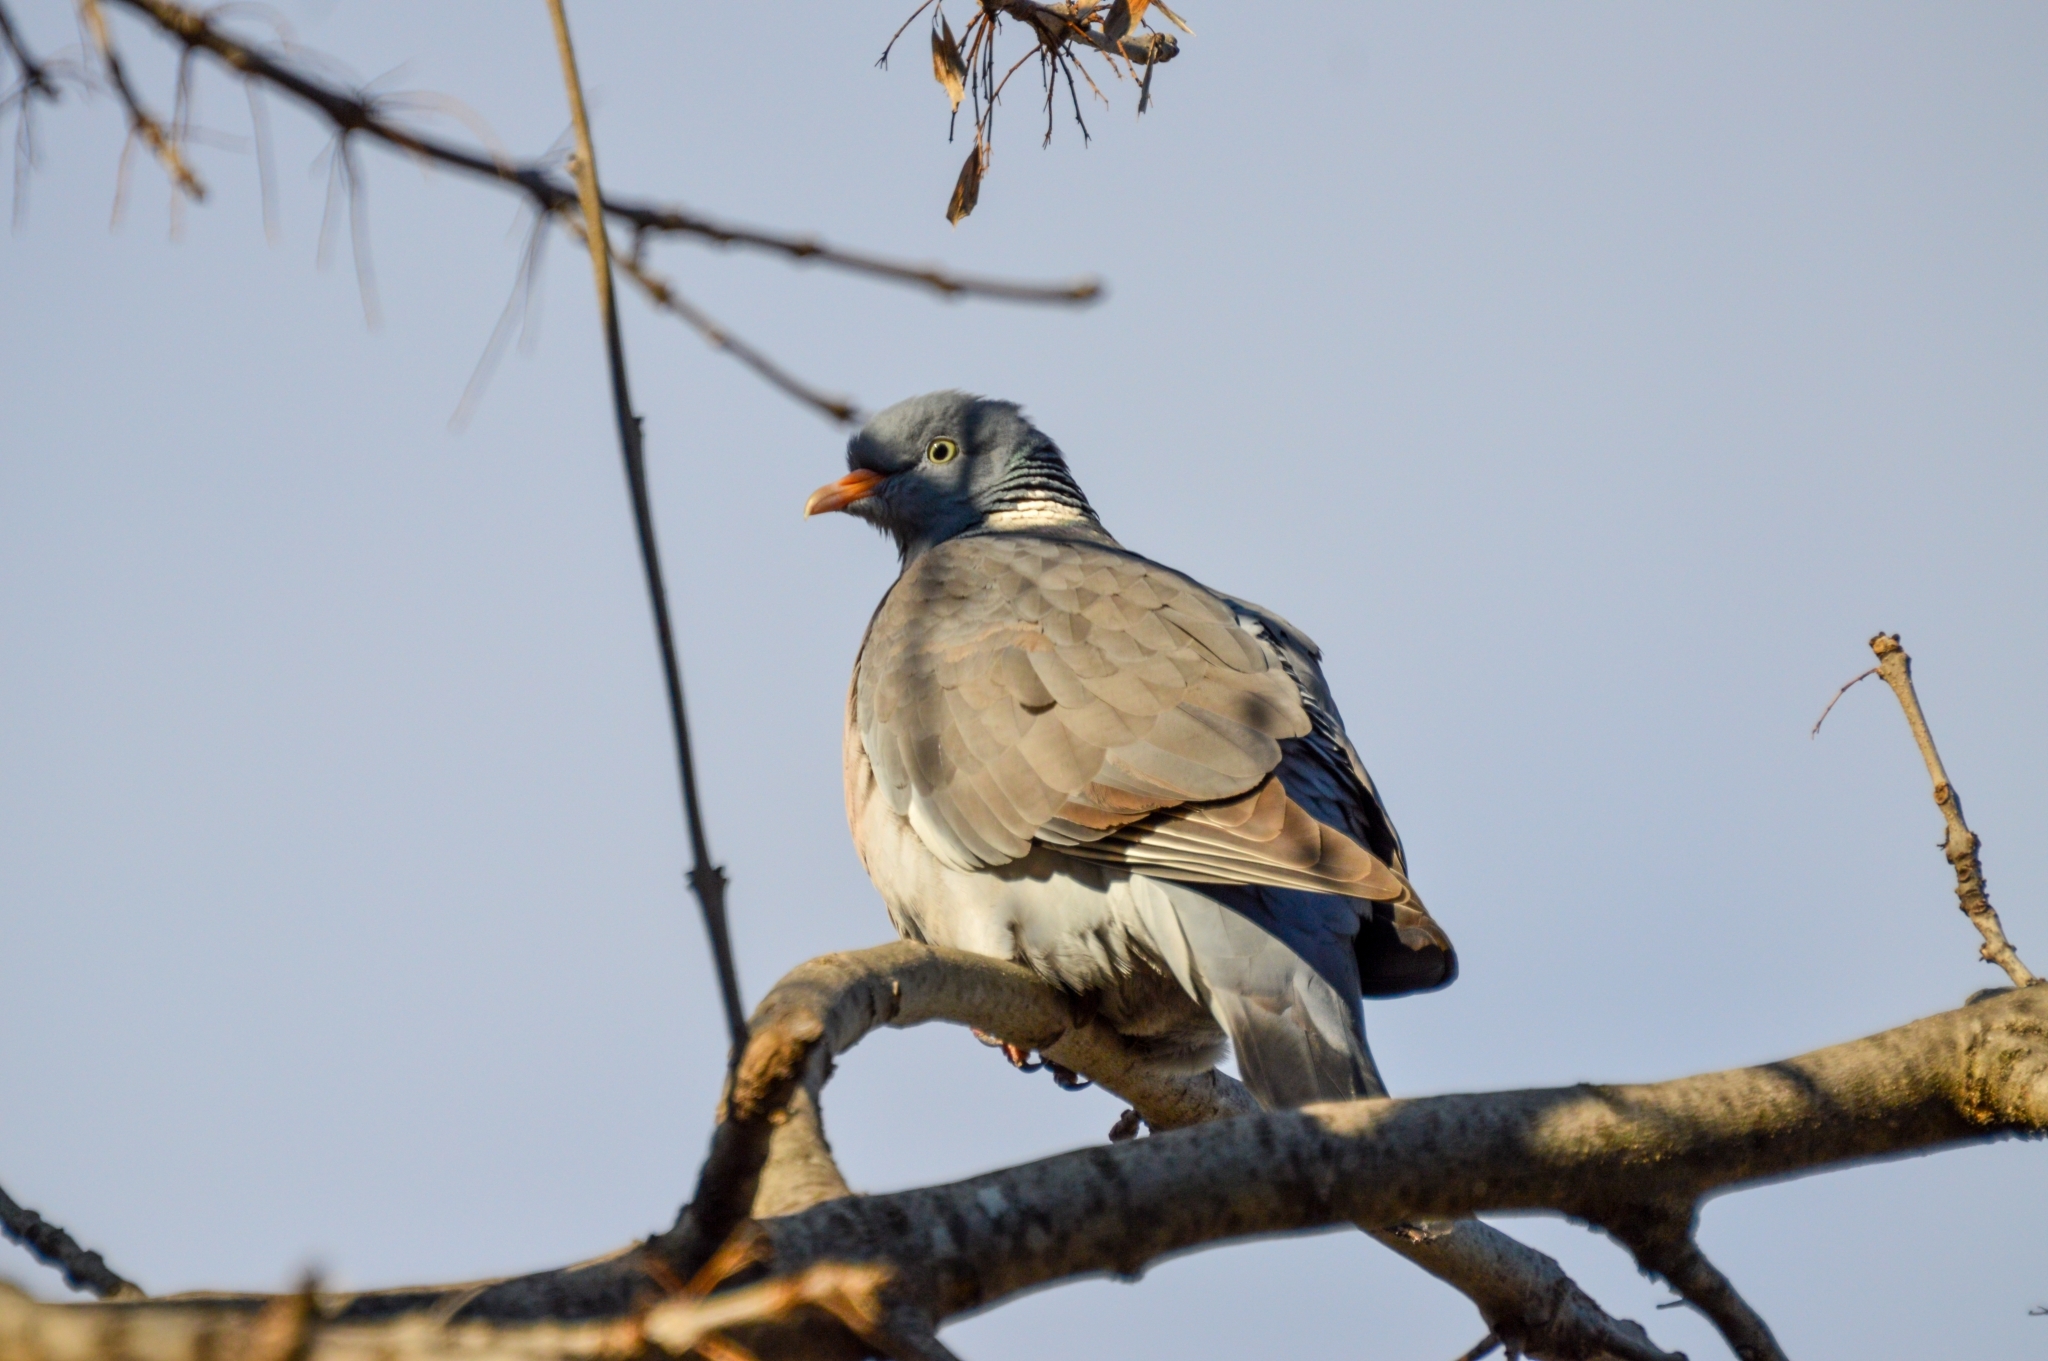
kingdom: Animalia
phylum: Chordata
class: Aves
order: Columbiformes
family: Columbidae
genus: Columba
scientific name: Columba palumbus
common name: Common wood pigeon
